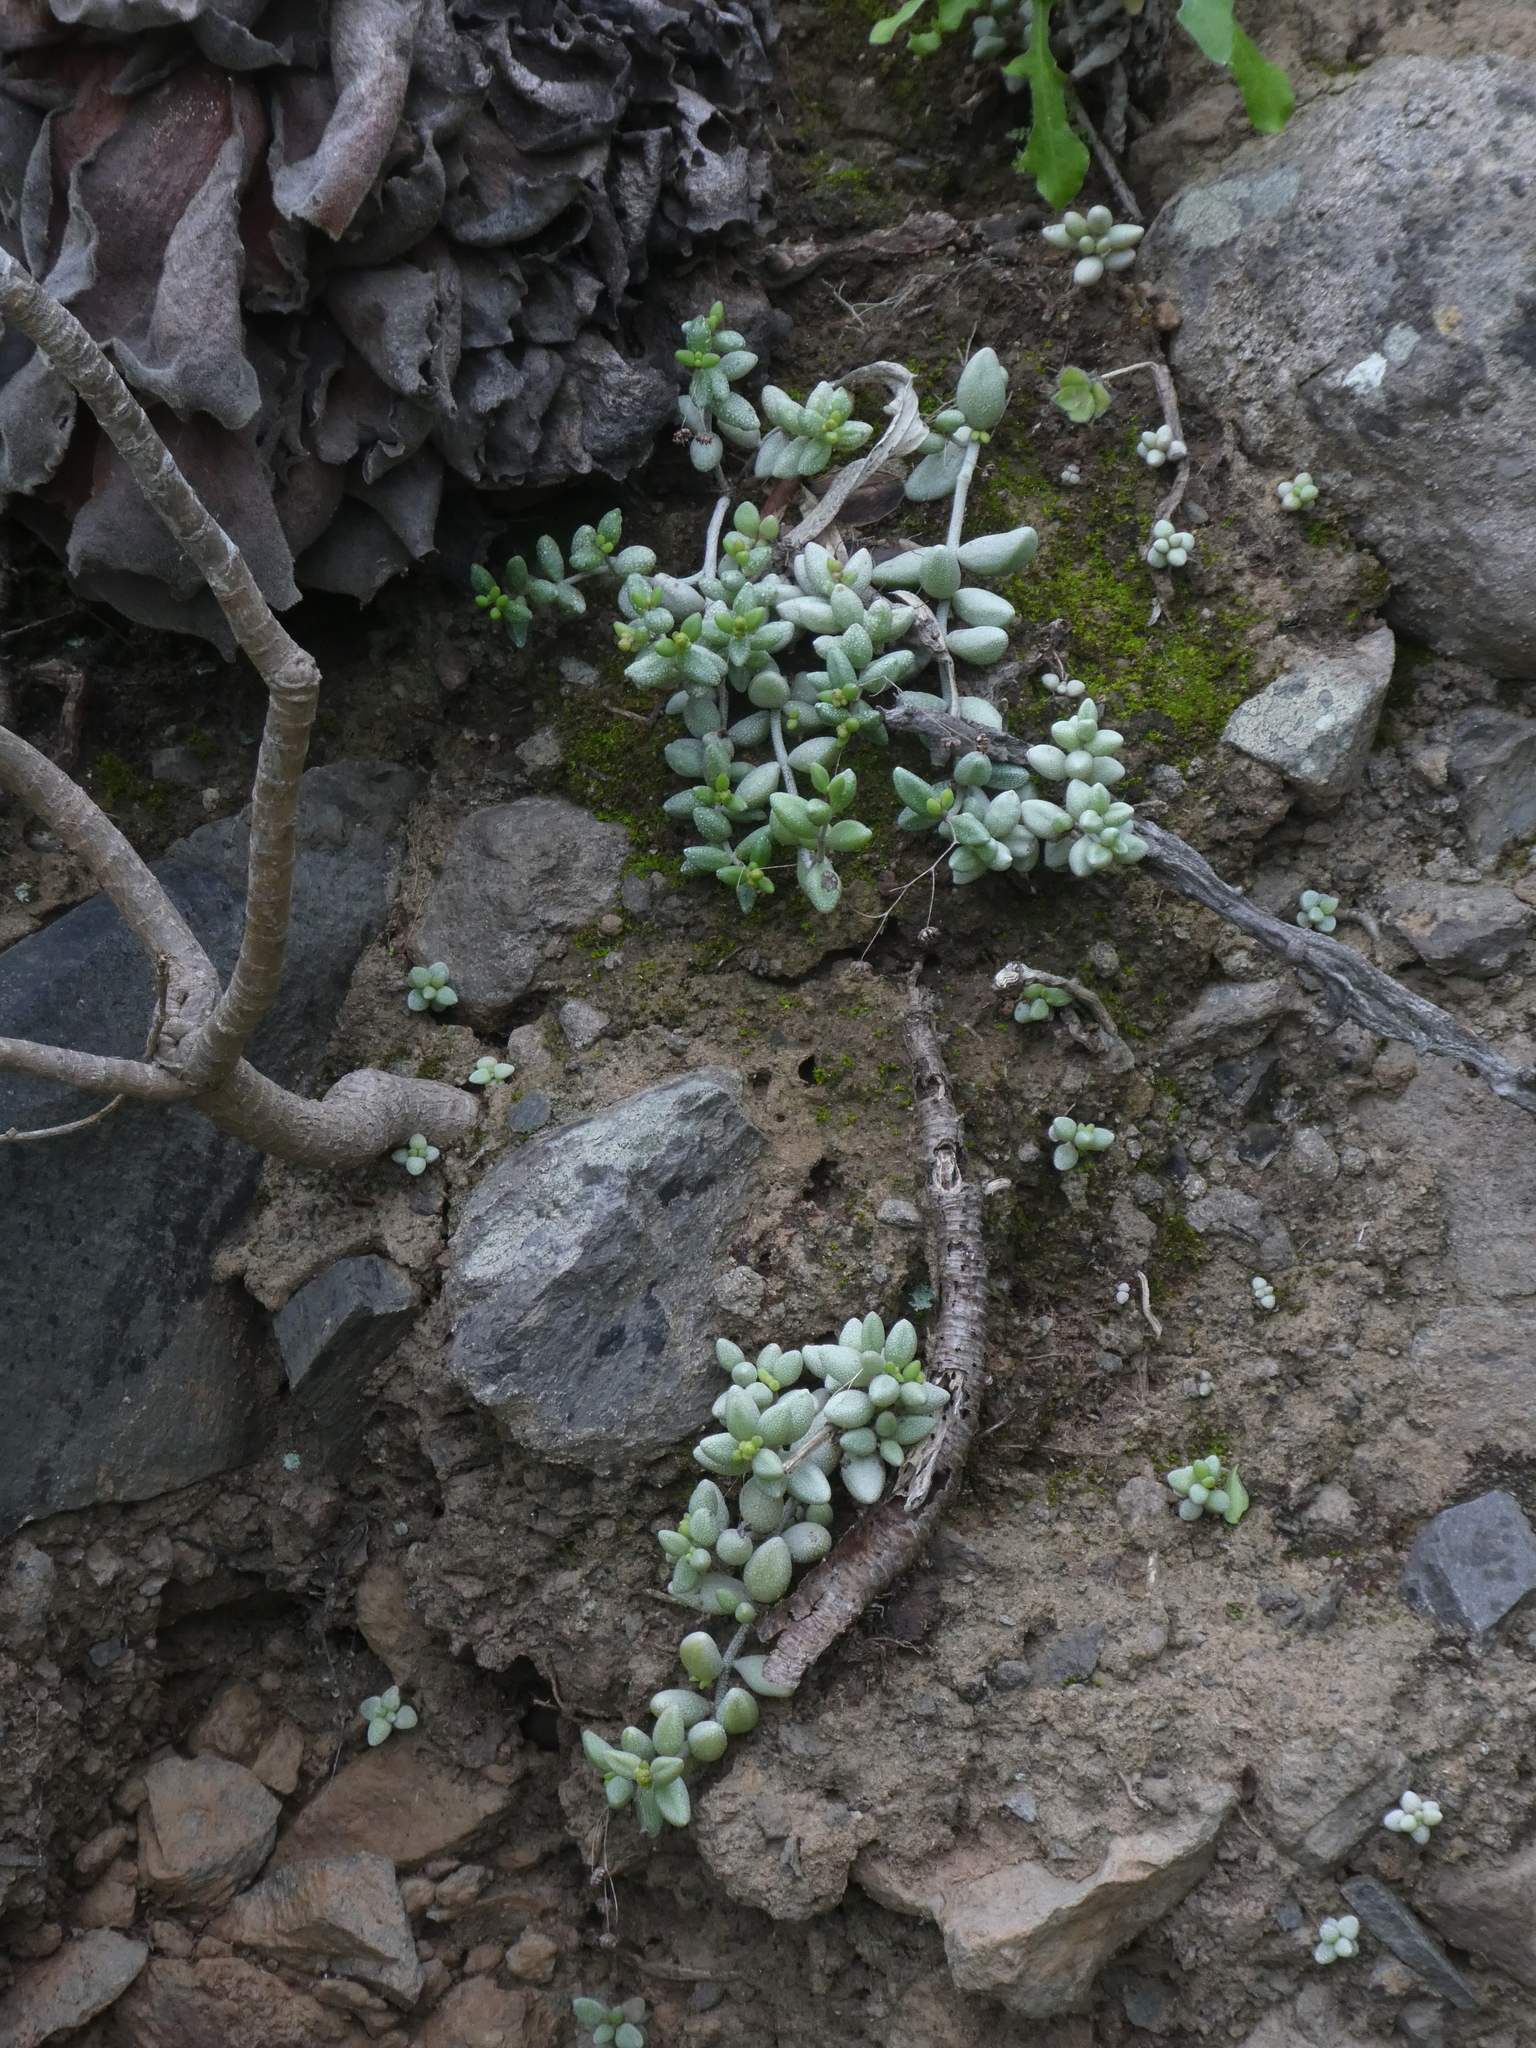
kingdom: Plantae
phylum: Tracheophyta
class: Magnoliopsida
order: Saxifragales
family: Crassulaceae
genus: Monanthes
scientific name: Monanthes laxiflora
